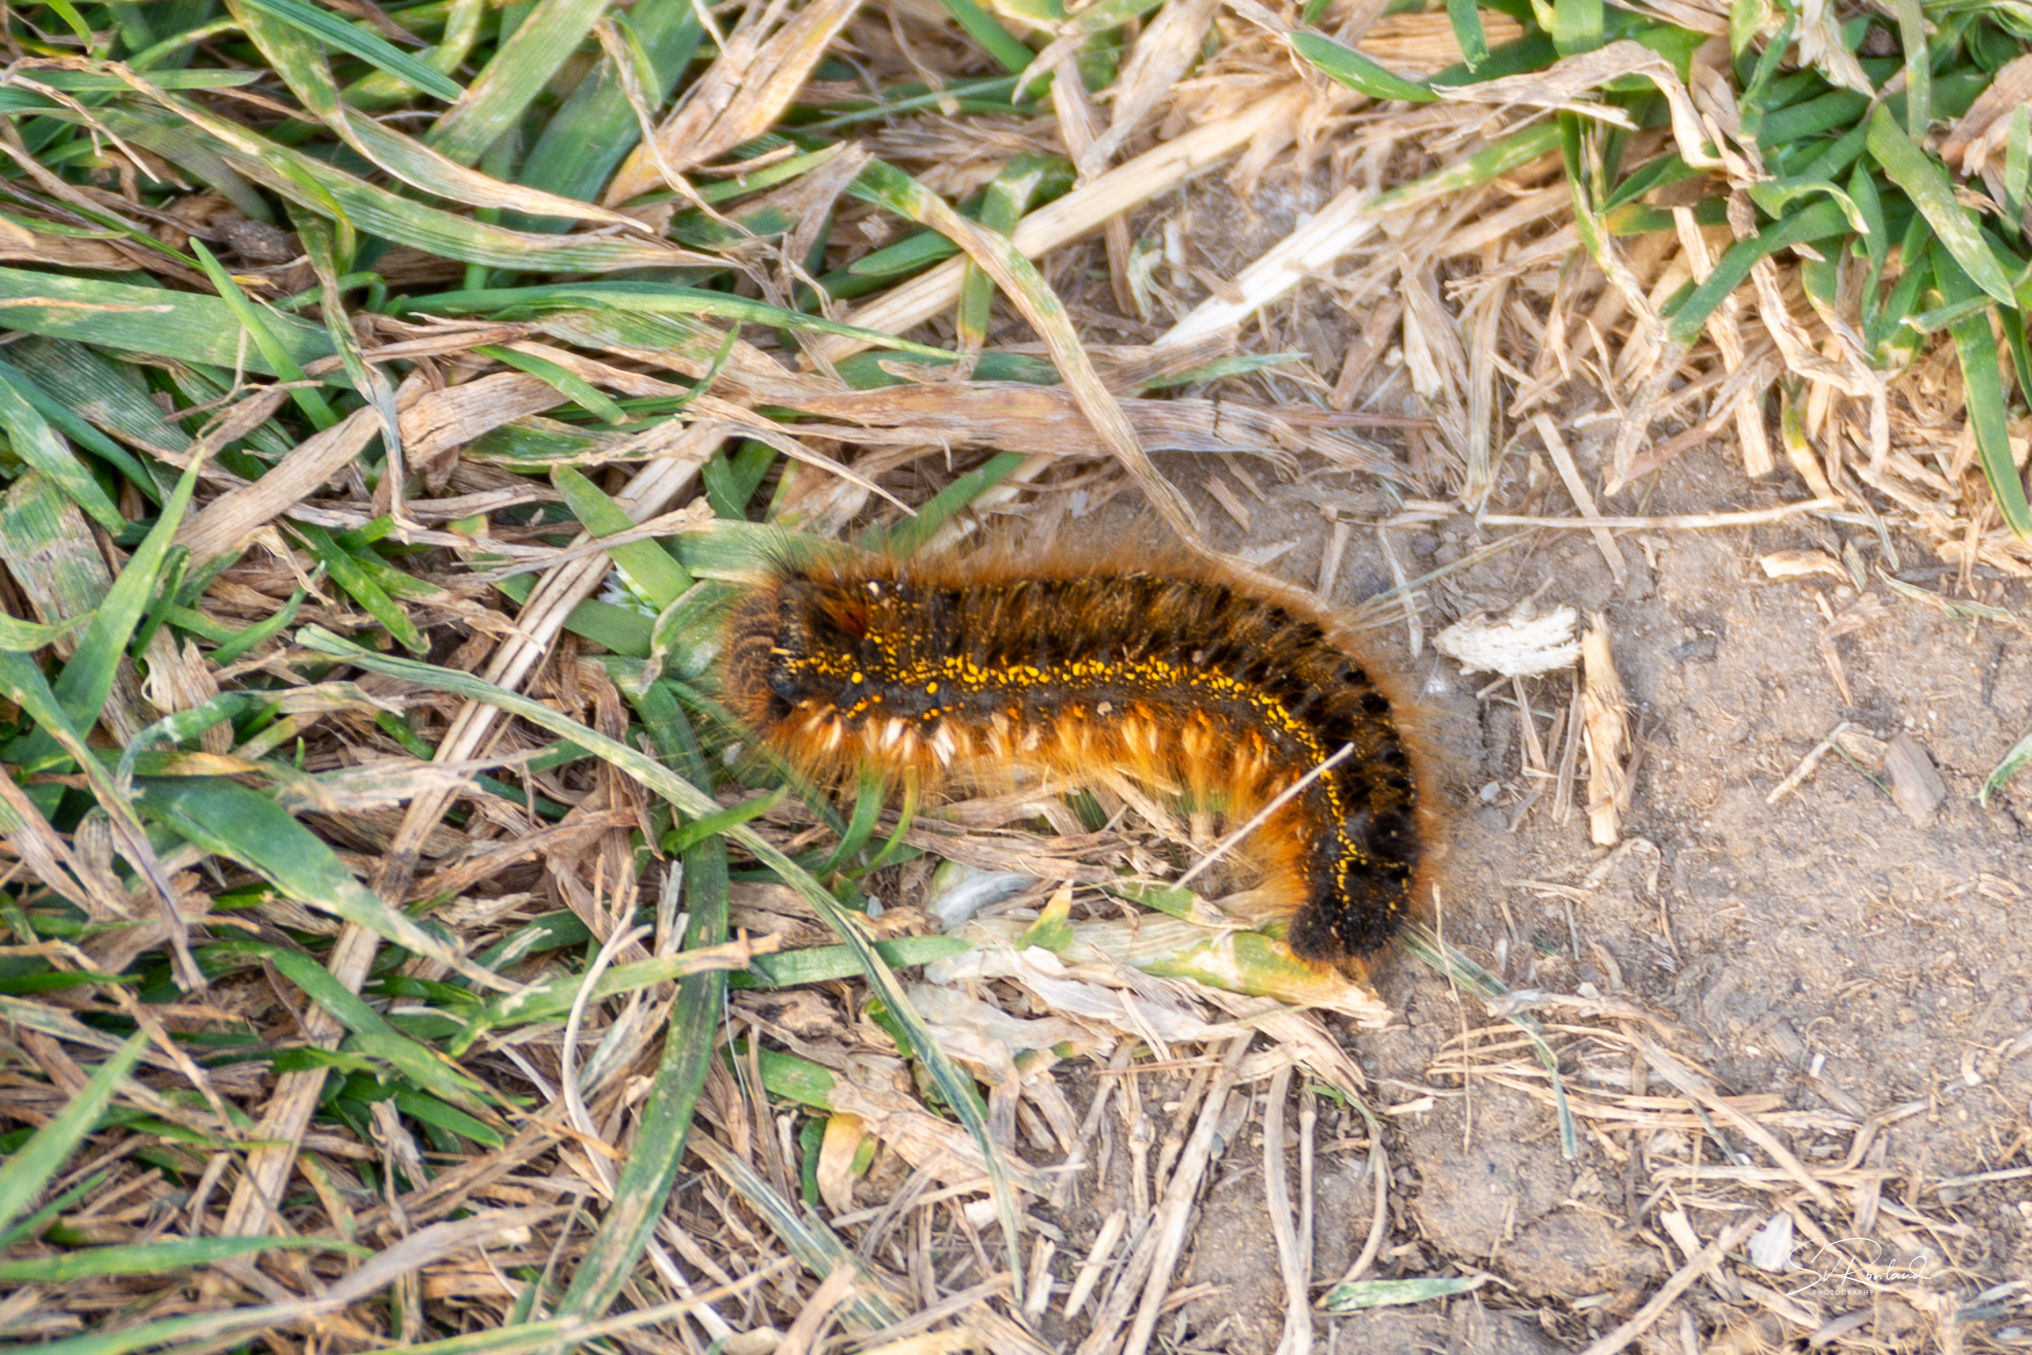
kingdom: Animalia
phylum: Arthropoda
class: Insecta
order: Lepidoptera
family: Lasiocampidae
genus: Euthrix
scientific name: Euthrix potatoria
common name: Drinker
